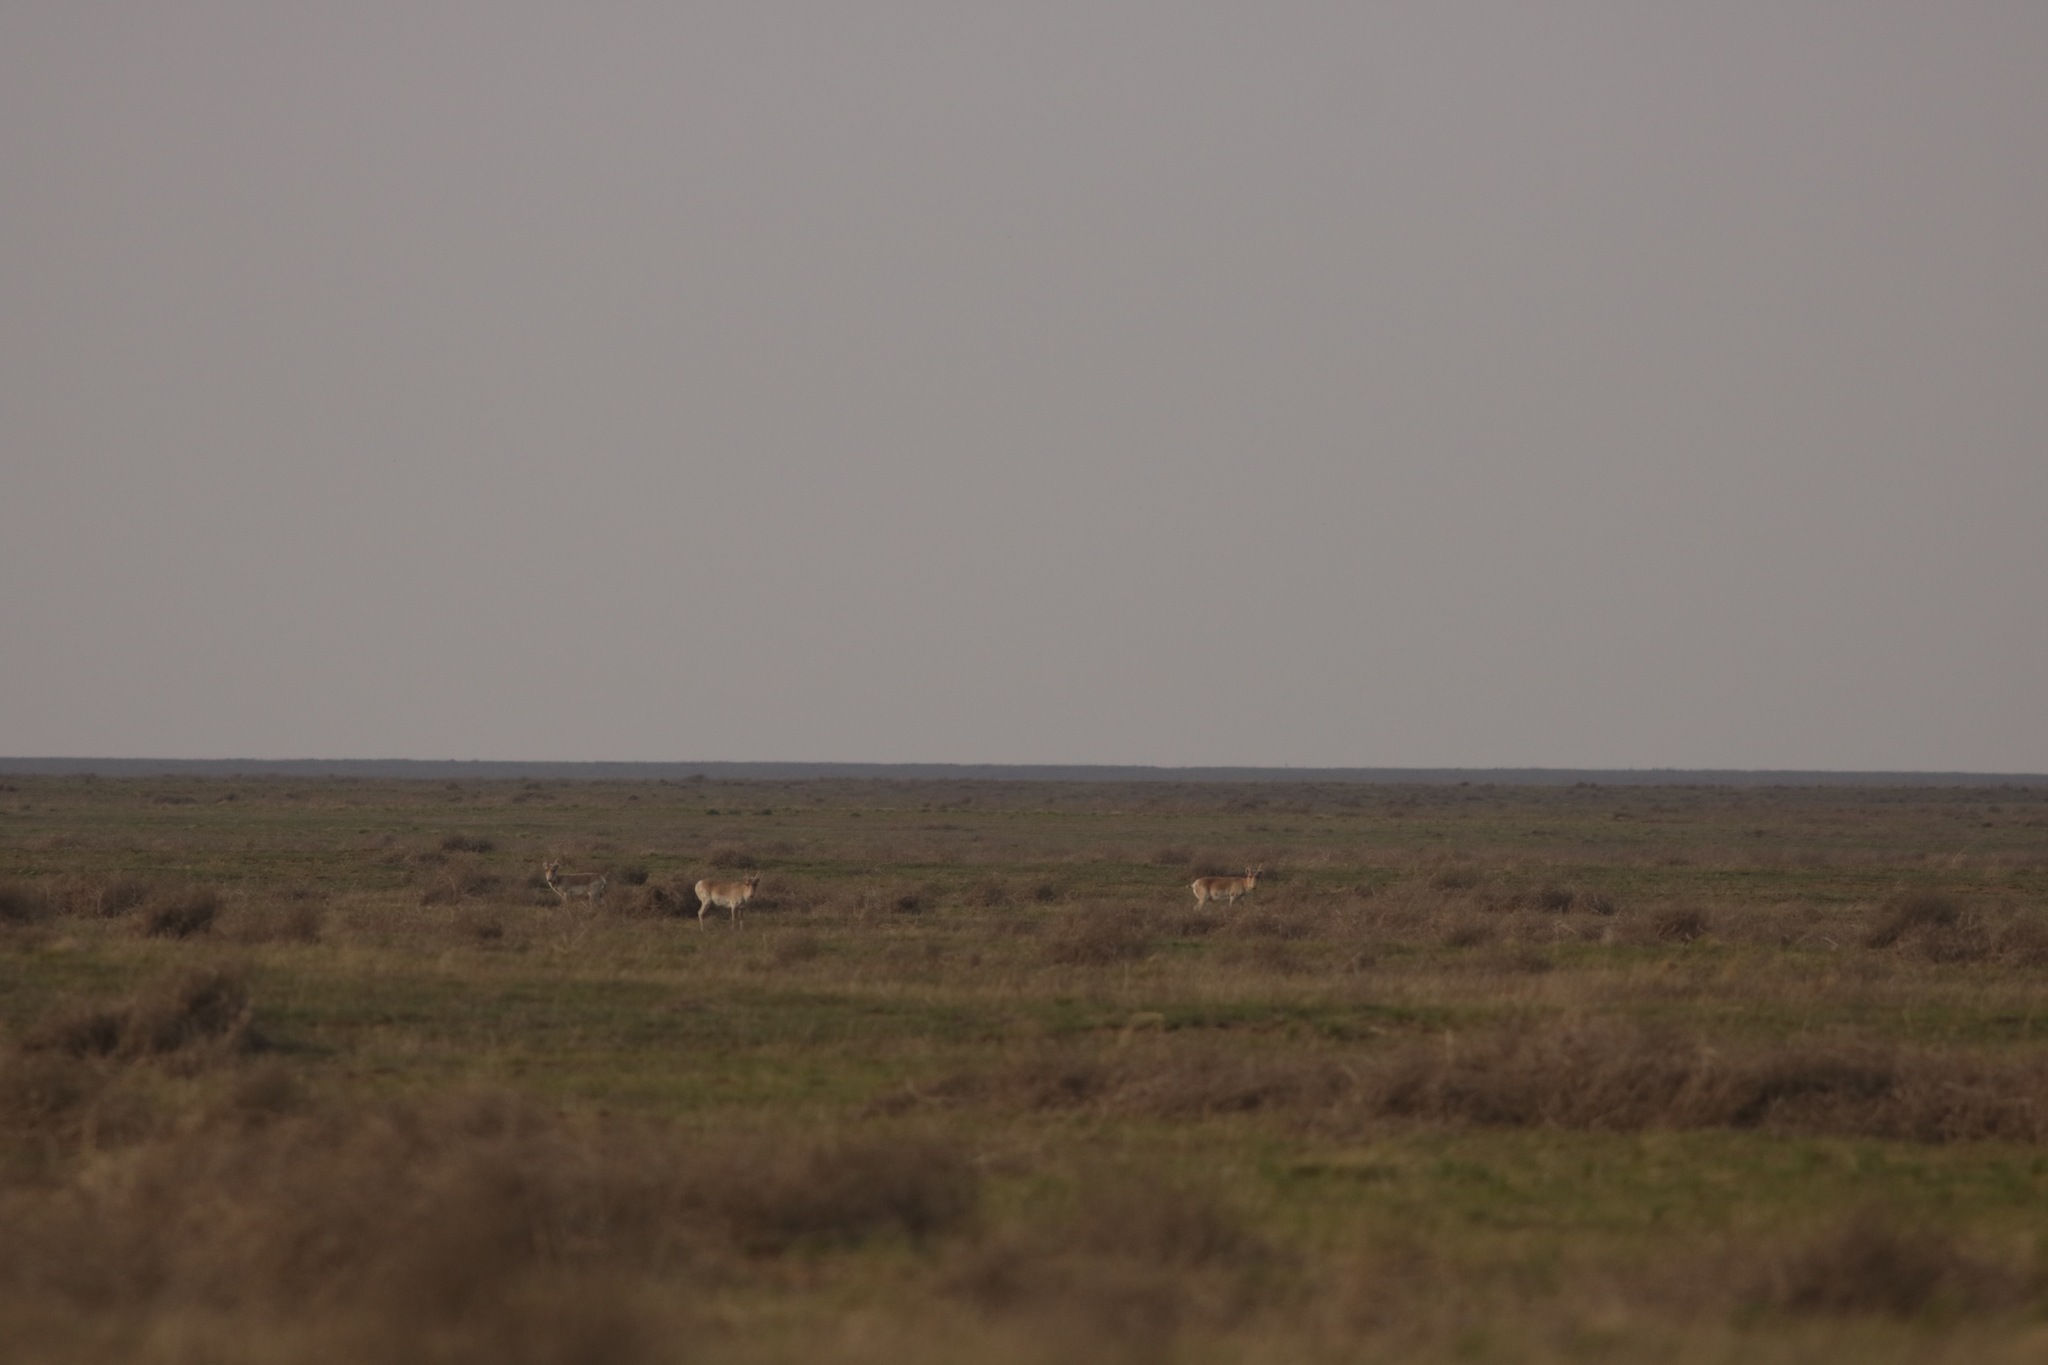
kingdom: Animalia
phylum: Chordata
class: Mammalia
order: Artiodactyla
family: Bovidae
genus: Saiga
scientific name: Saiga tatarica
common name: Saiga
